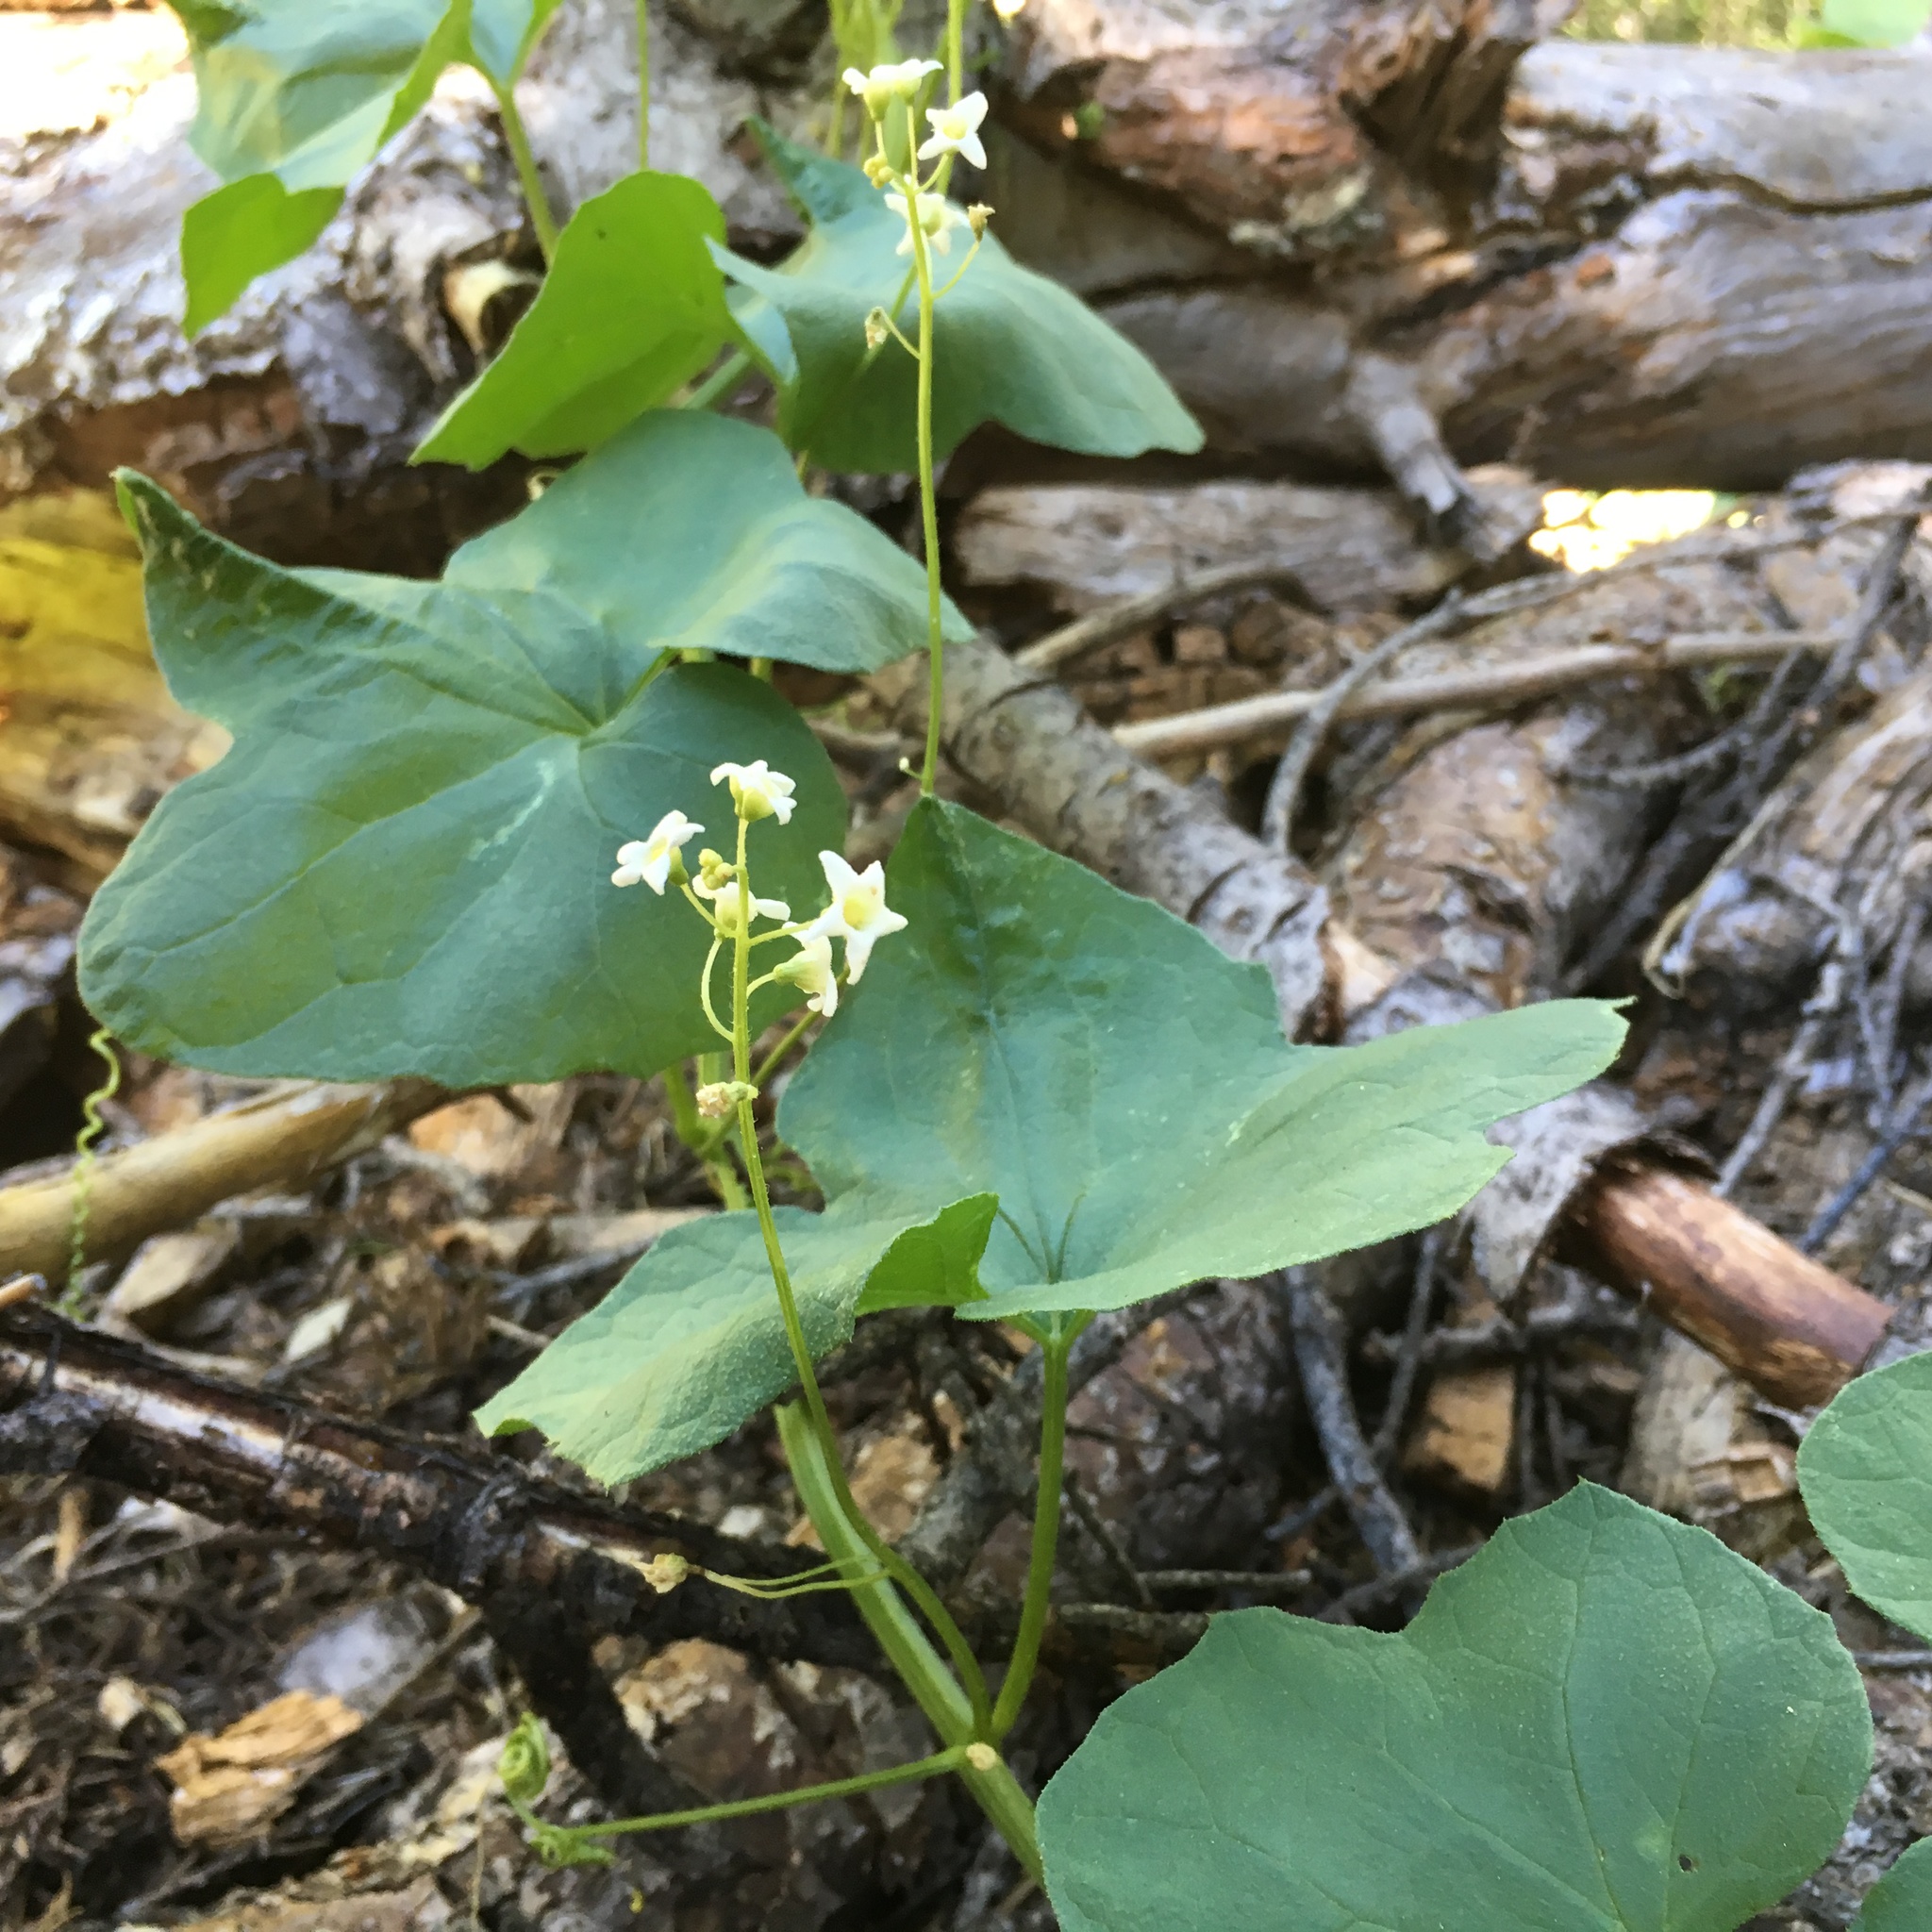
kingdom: Plantae
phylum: Tracheophyta
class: Magnoliopsida
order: Cucurbitales
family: Cucurbitaceae
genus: Marah
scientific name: Marah oregana
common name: Coastal manroot
